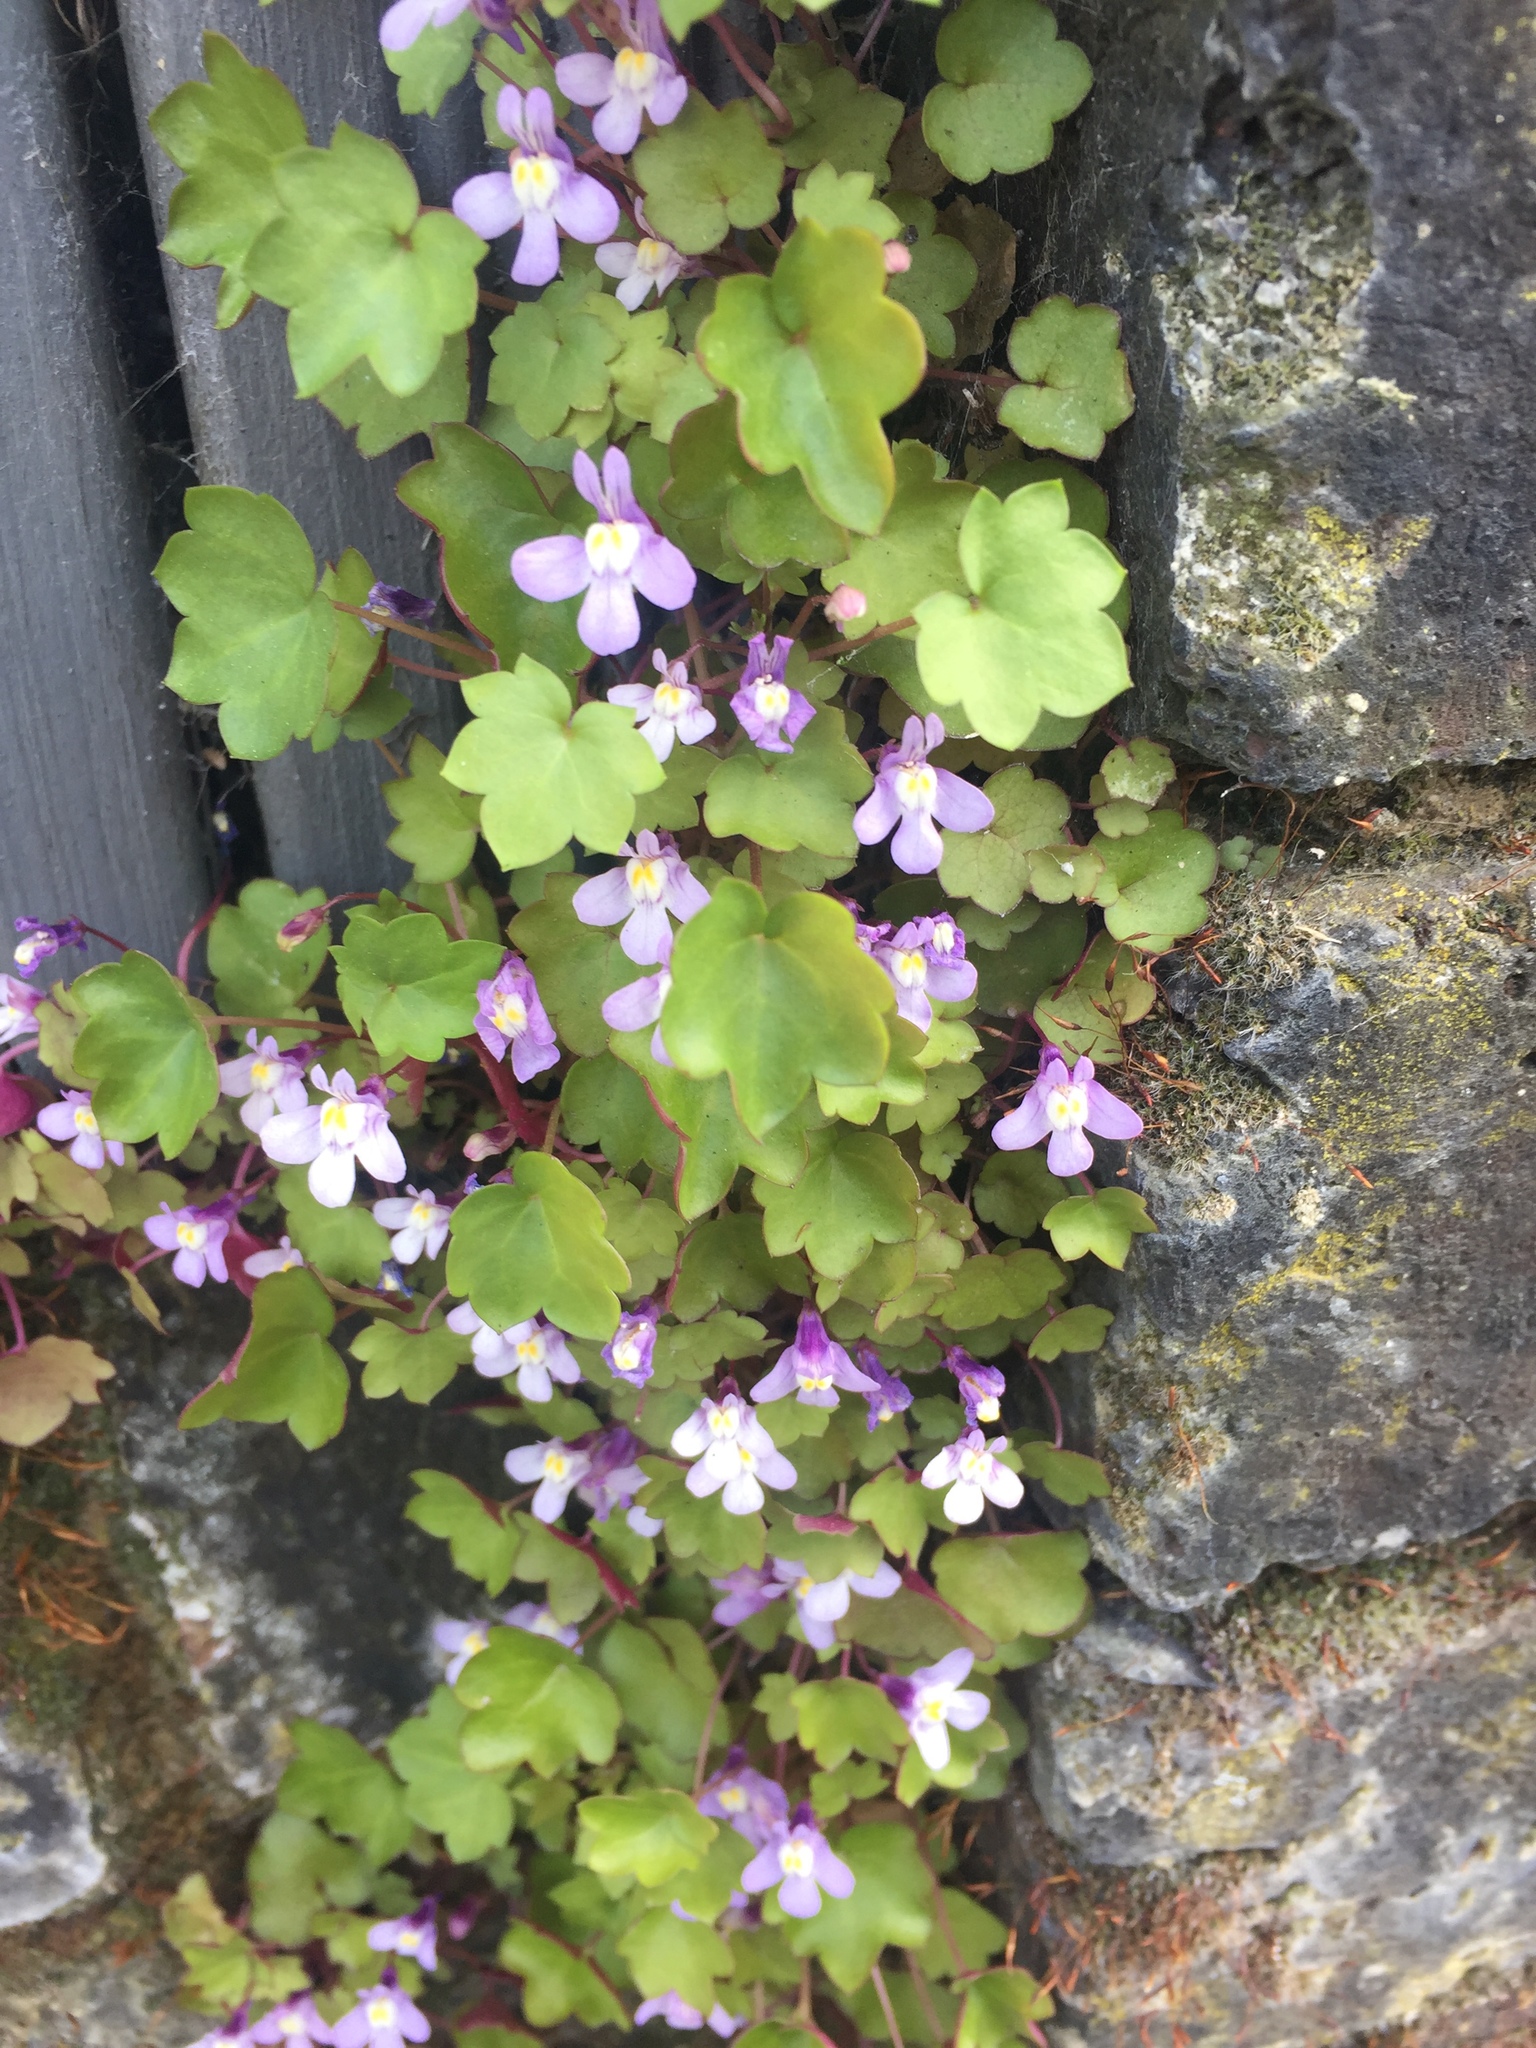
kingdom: Plantae
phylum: Tracheophyta
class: Magnoliopsida
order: Lamiales
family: Plantaginaceae
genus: Cymbalaria
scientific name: Cymbalaria muralis
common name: Ivy-leaved toadflax
